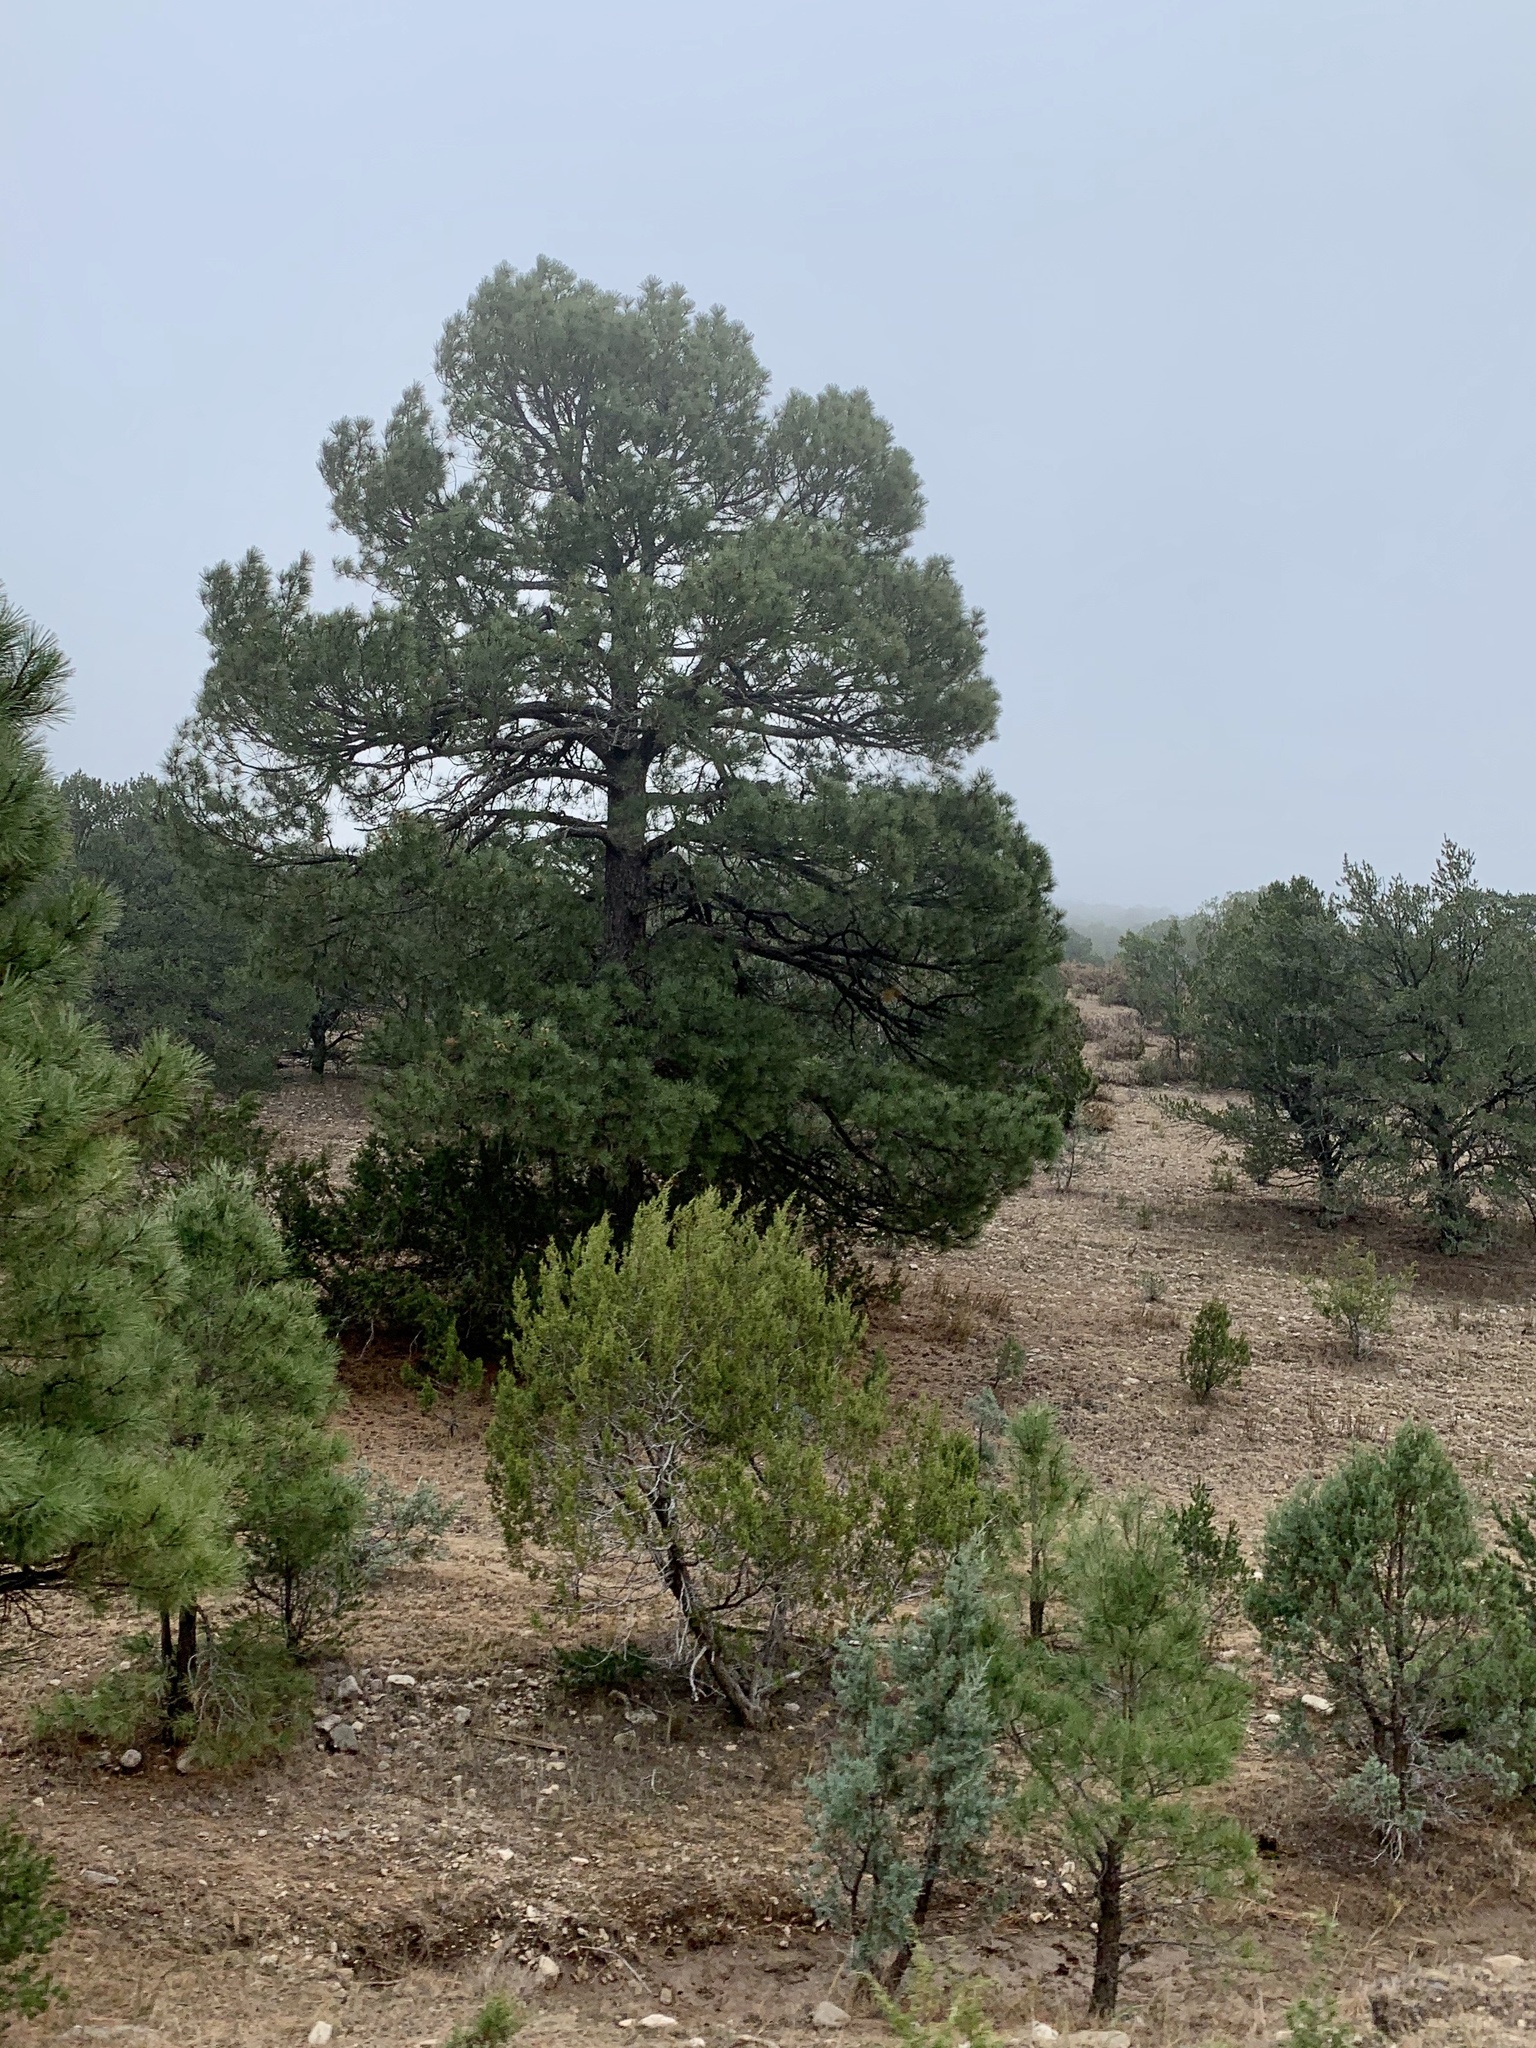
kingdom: Plantae
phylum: Tracheophyta
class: Pinopsida
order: Pinales
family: Pinaceae
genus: Pinus
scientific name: Pinus ponderosa
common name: Western yellow-pine
